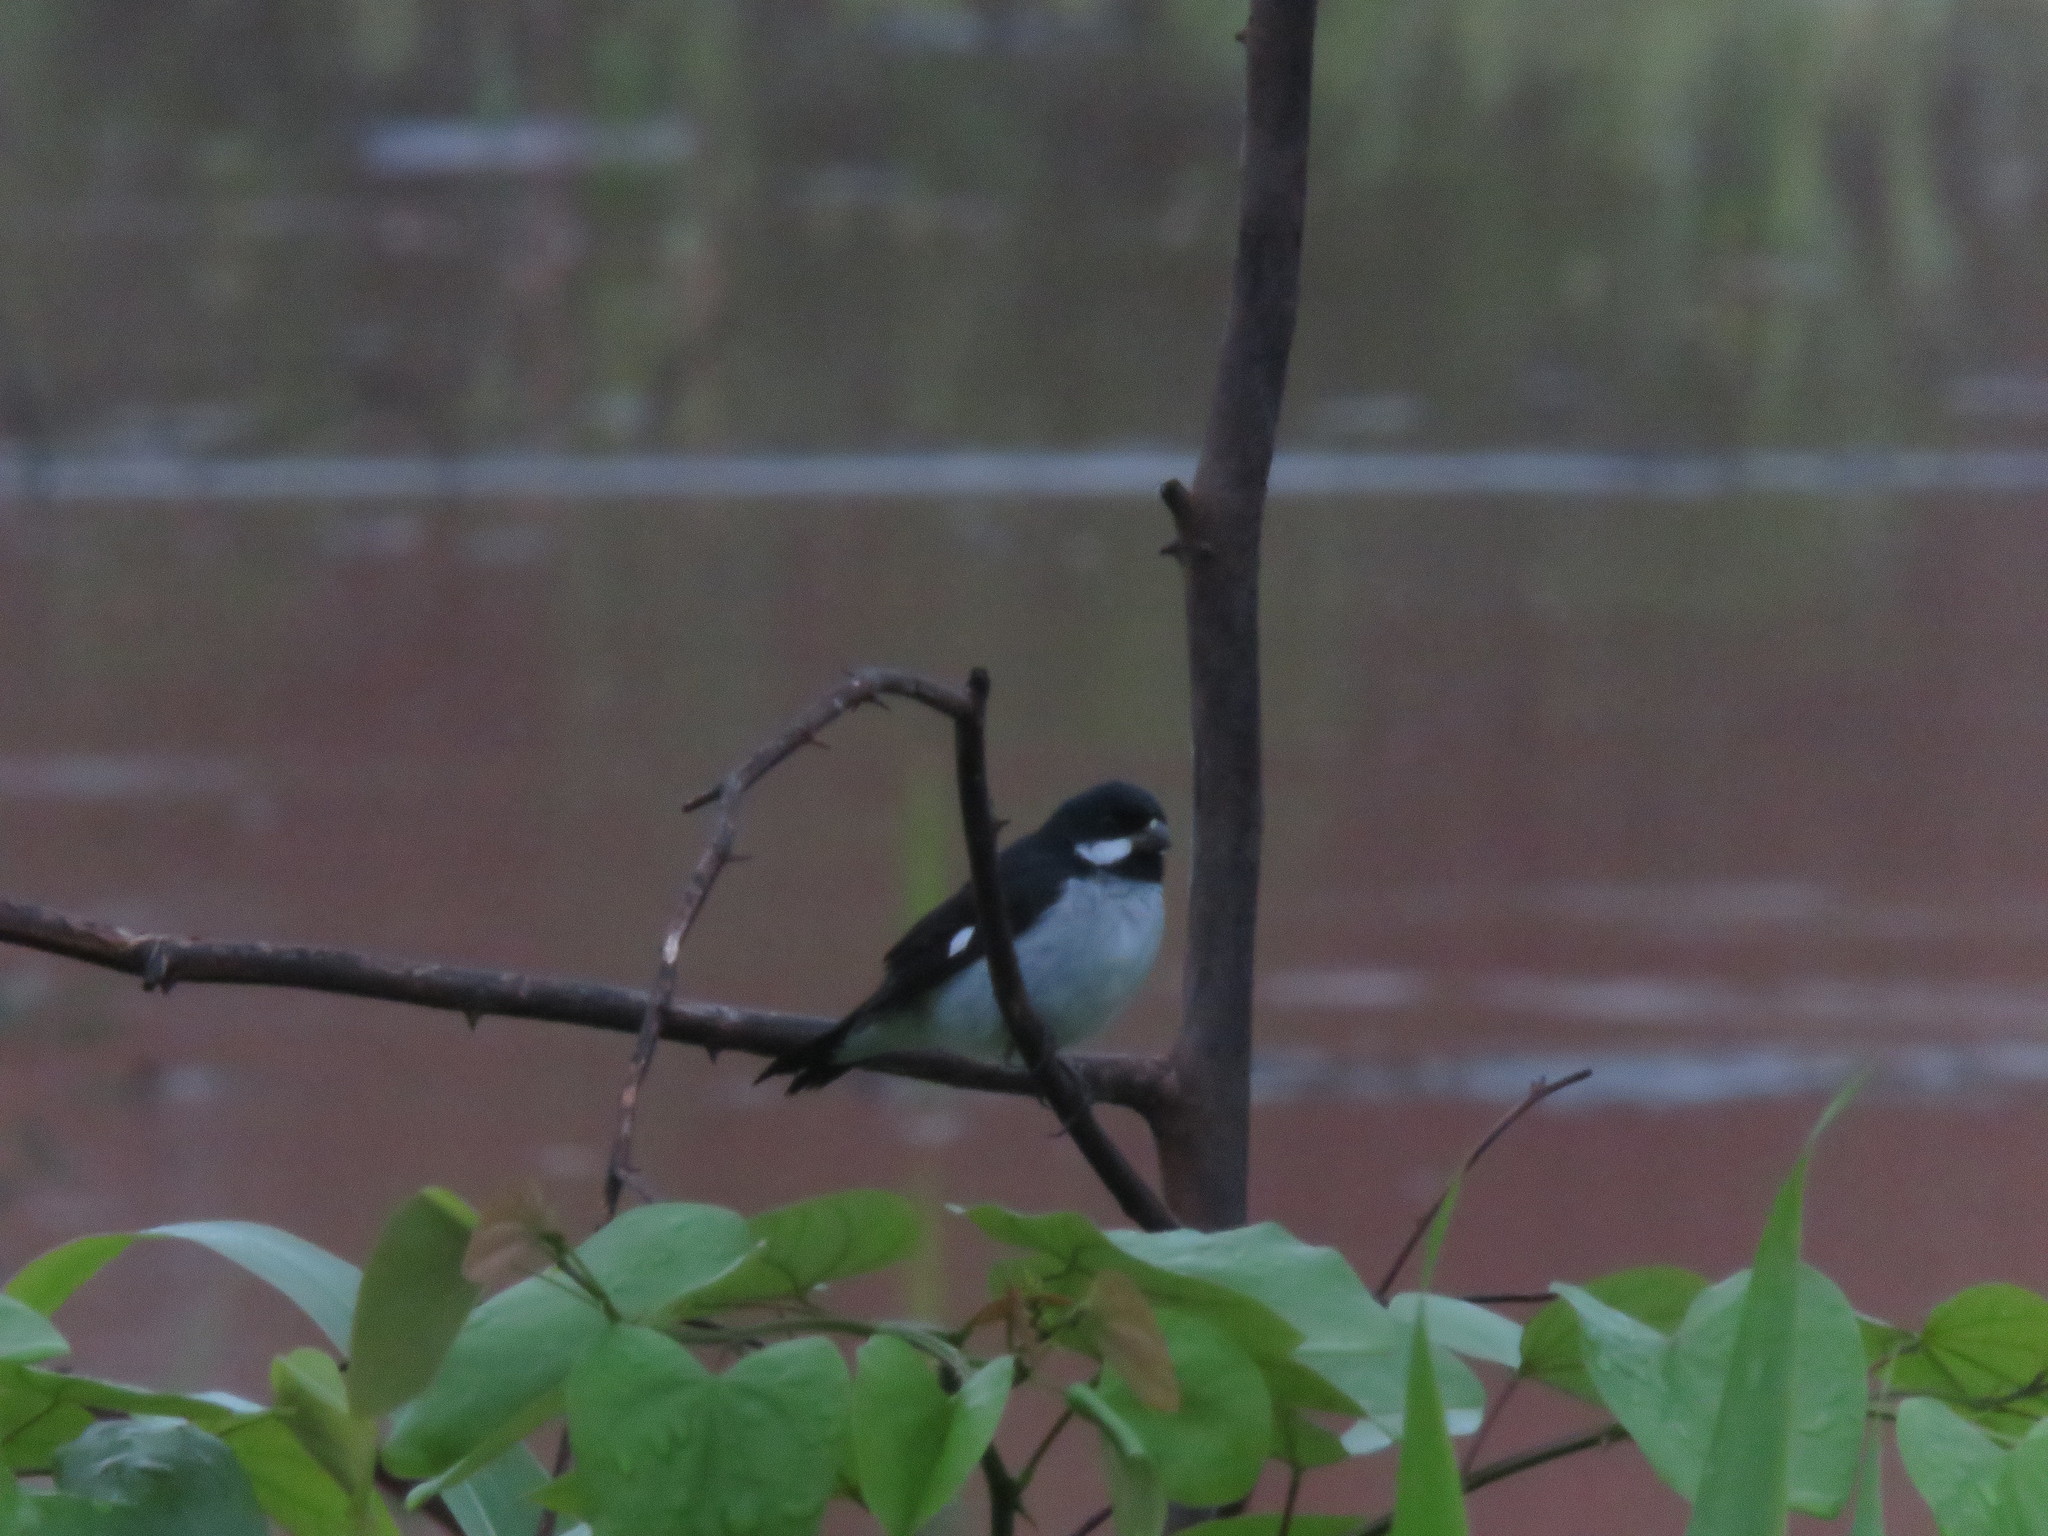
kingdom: Animalia
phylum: Chordata
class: Aves
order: Passeriformes
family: Thraupidae
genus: Sporophila
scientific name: Sporophila bouvronides
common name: Lesson's seedeater
